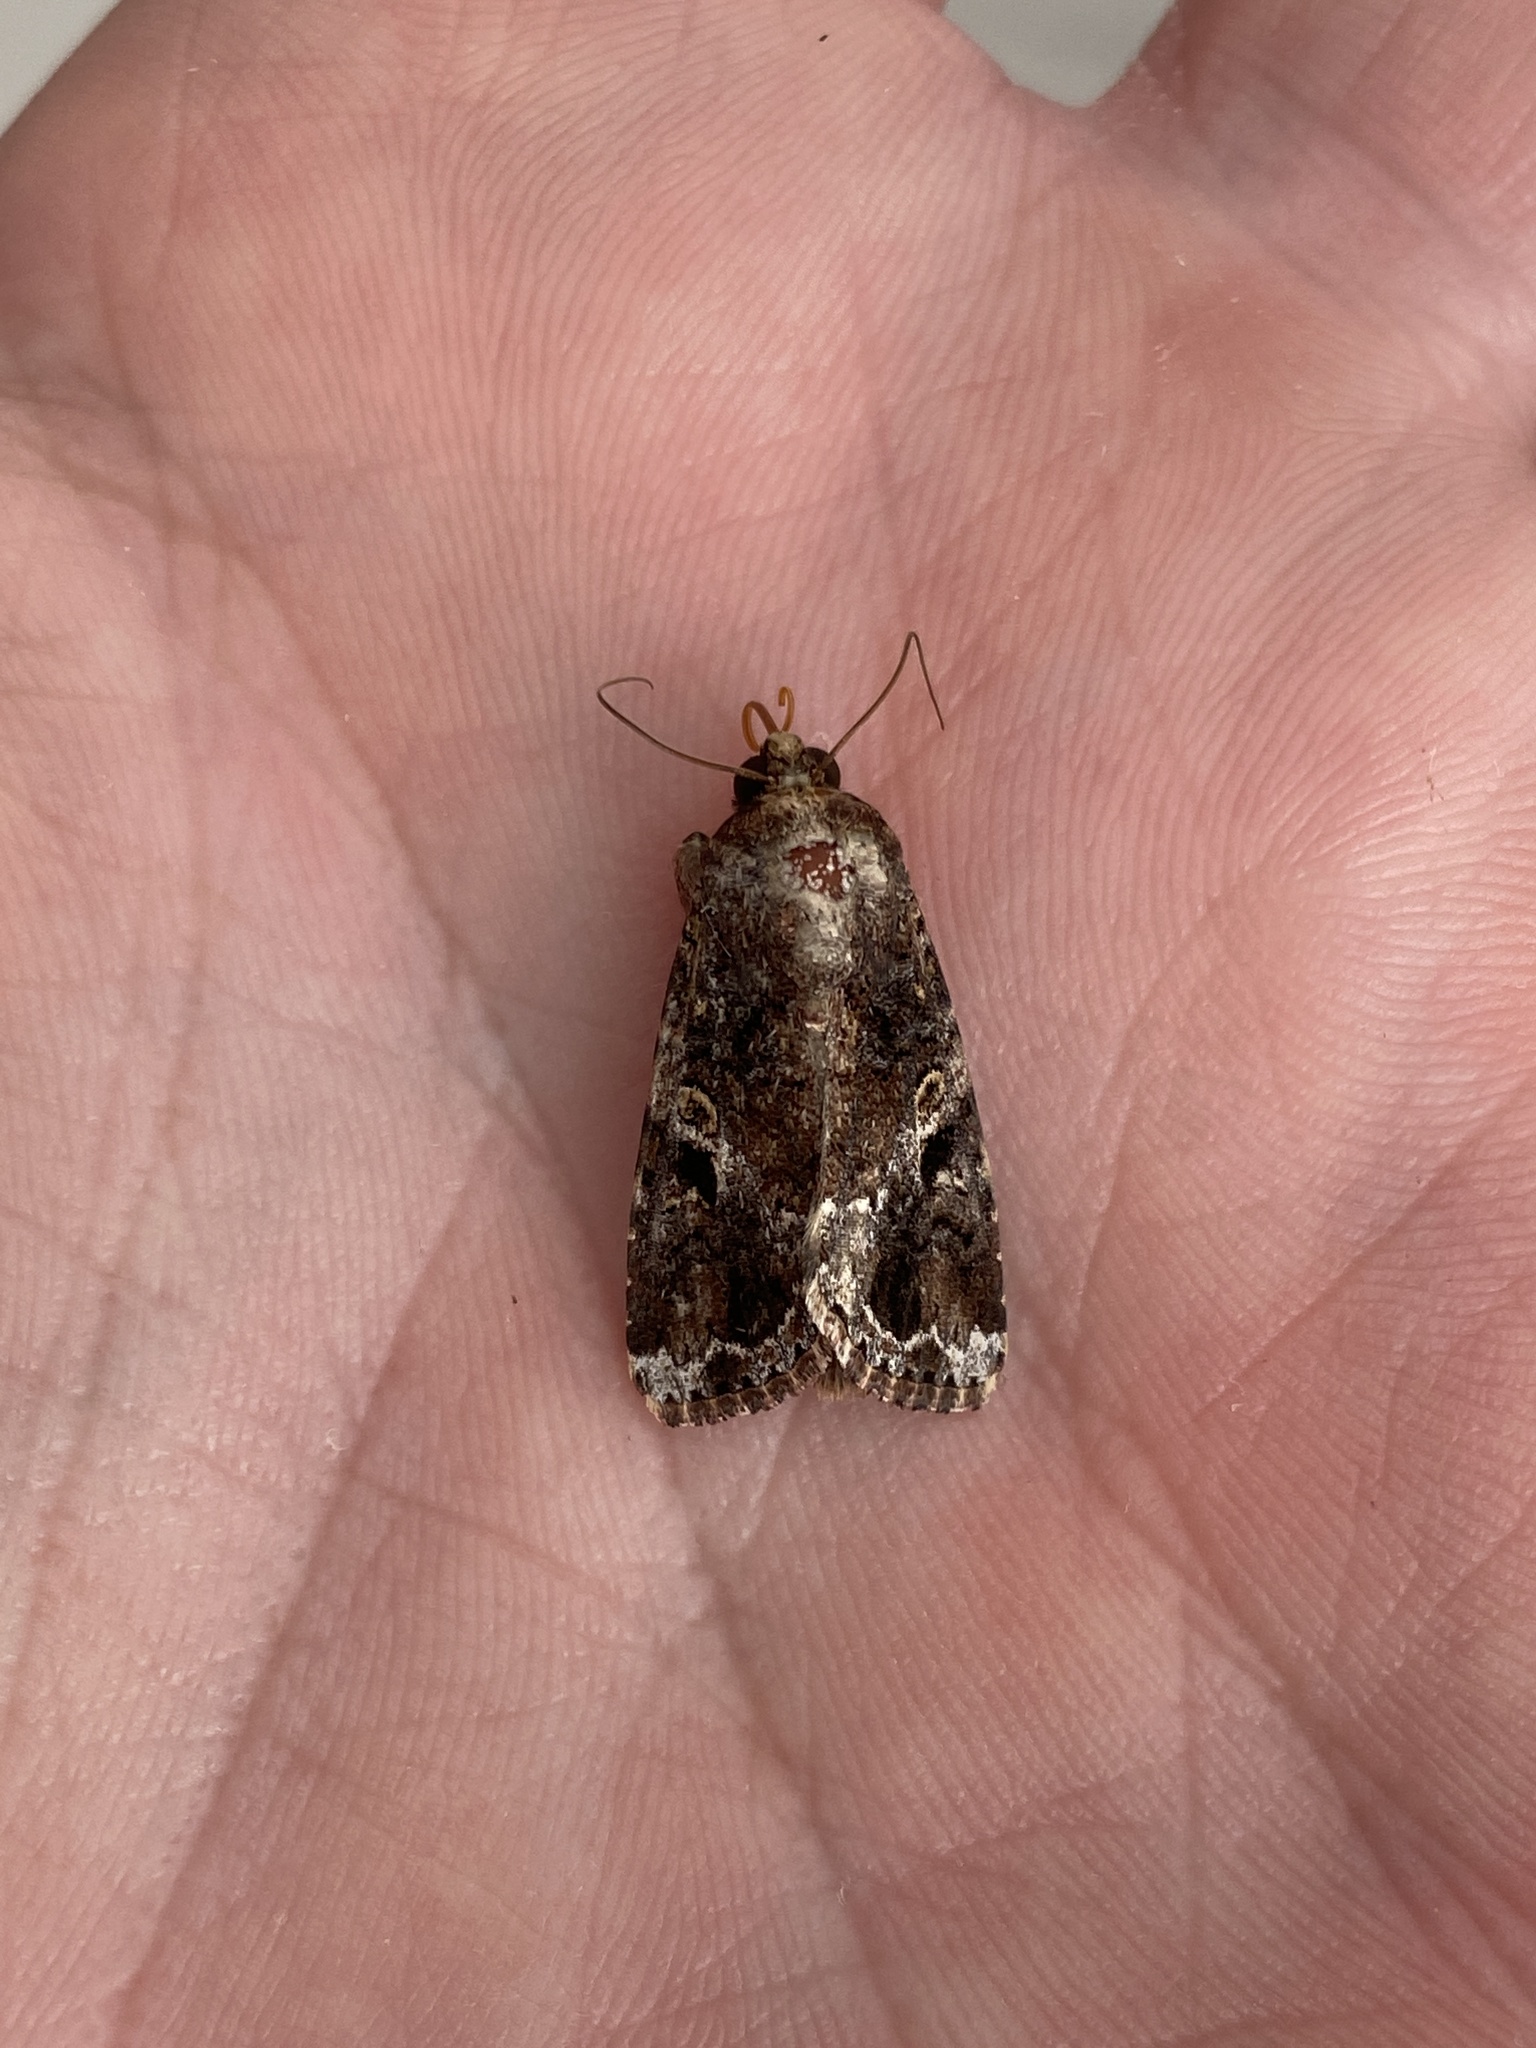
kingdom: Animalia
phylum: Arthropoda
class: Insecta
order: Lepidoptera
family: Noctuidae
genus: Spodoptera
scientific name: Spodoptera mauritia
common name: Lawn armyworm
